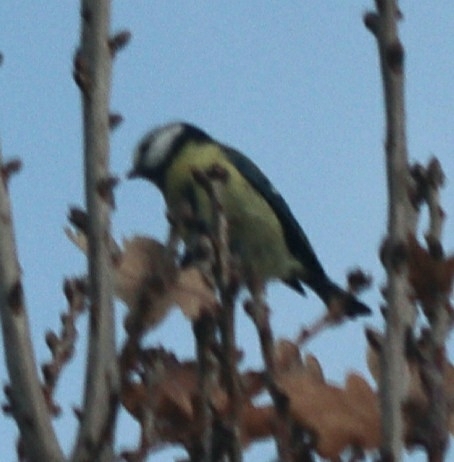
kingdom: Animalia
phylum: Chordata
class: Aves
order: Passeriformes
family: Paridae
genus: Cyanistes
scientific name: Cyanistes caeruleus
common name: Eurasian blue tit
